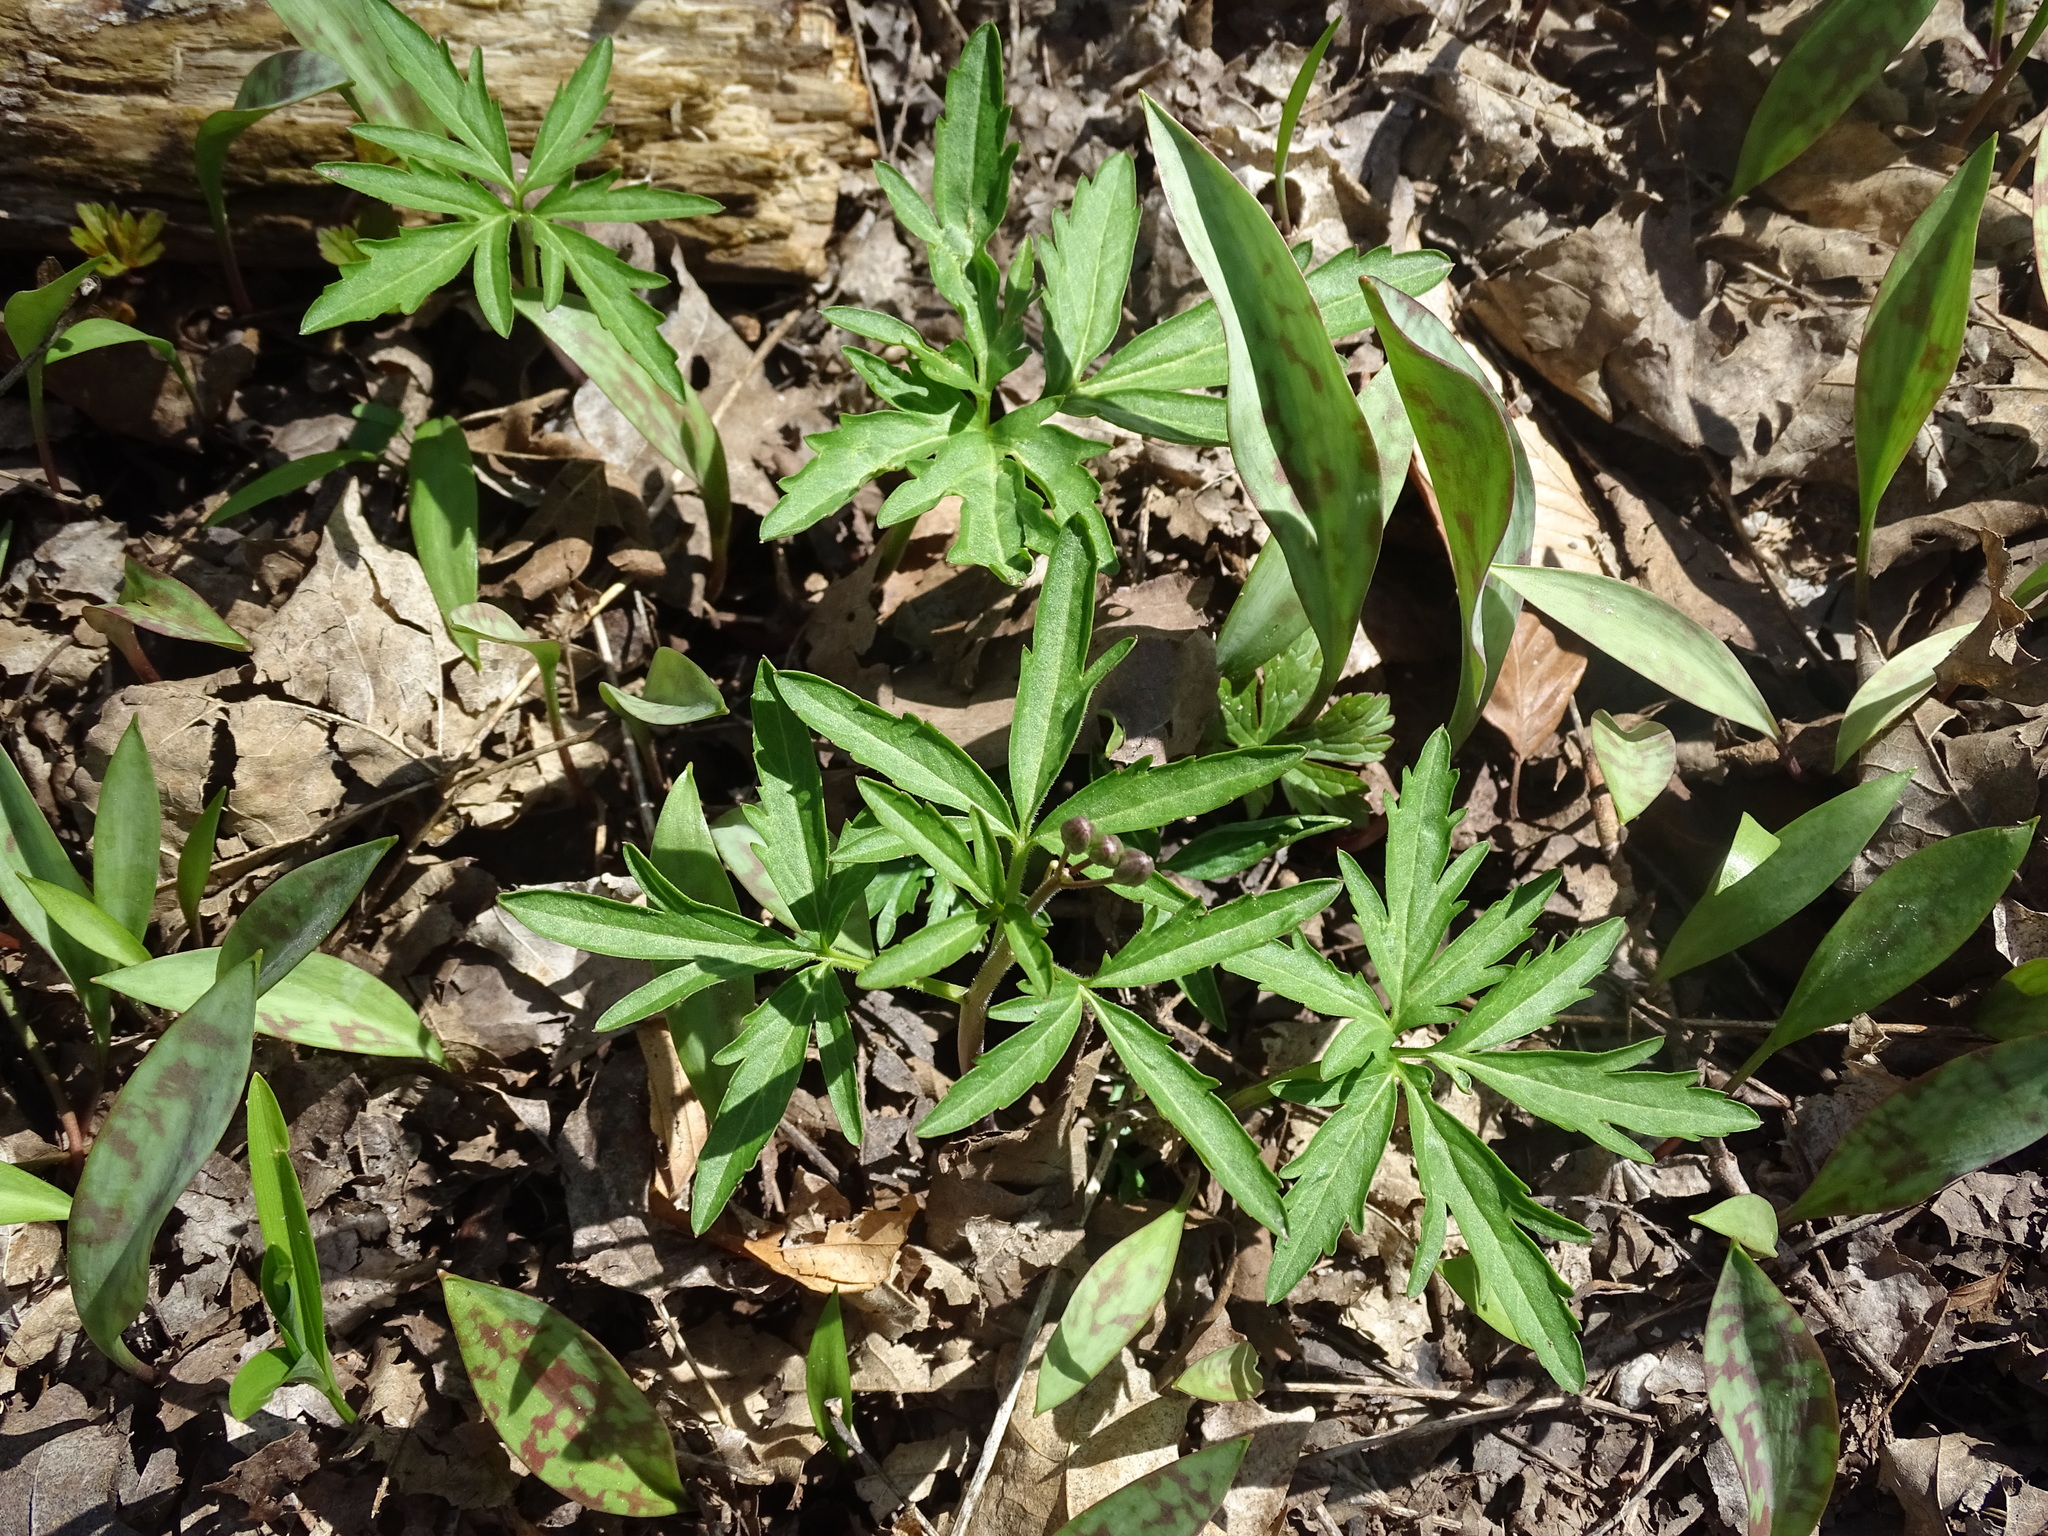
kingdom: Plantae
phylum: Tracheophyta
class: Magnoliopsida
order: Brassicales
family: Brassicaceae
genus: Cardamine
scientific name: Cardamine concatenata
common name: Cut-leaf toothcup
